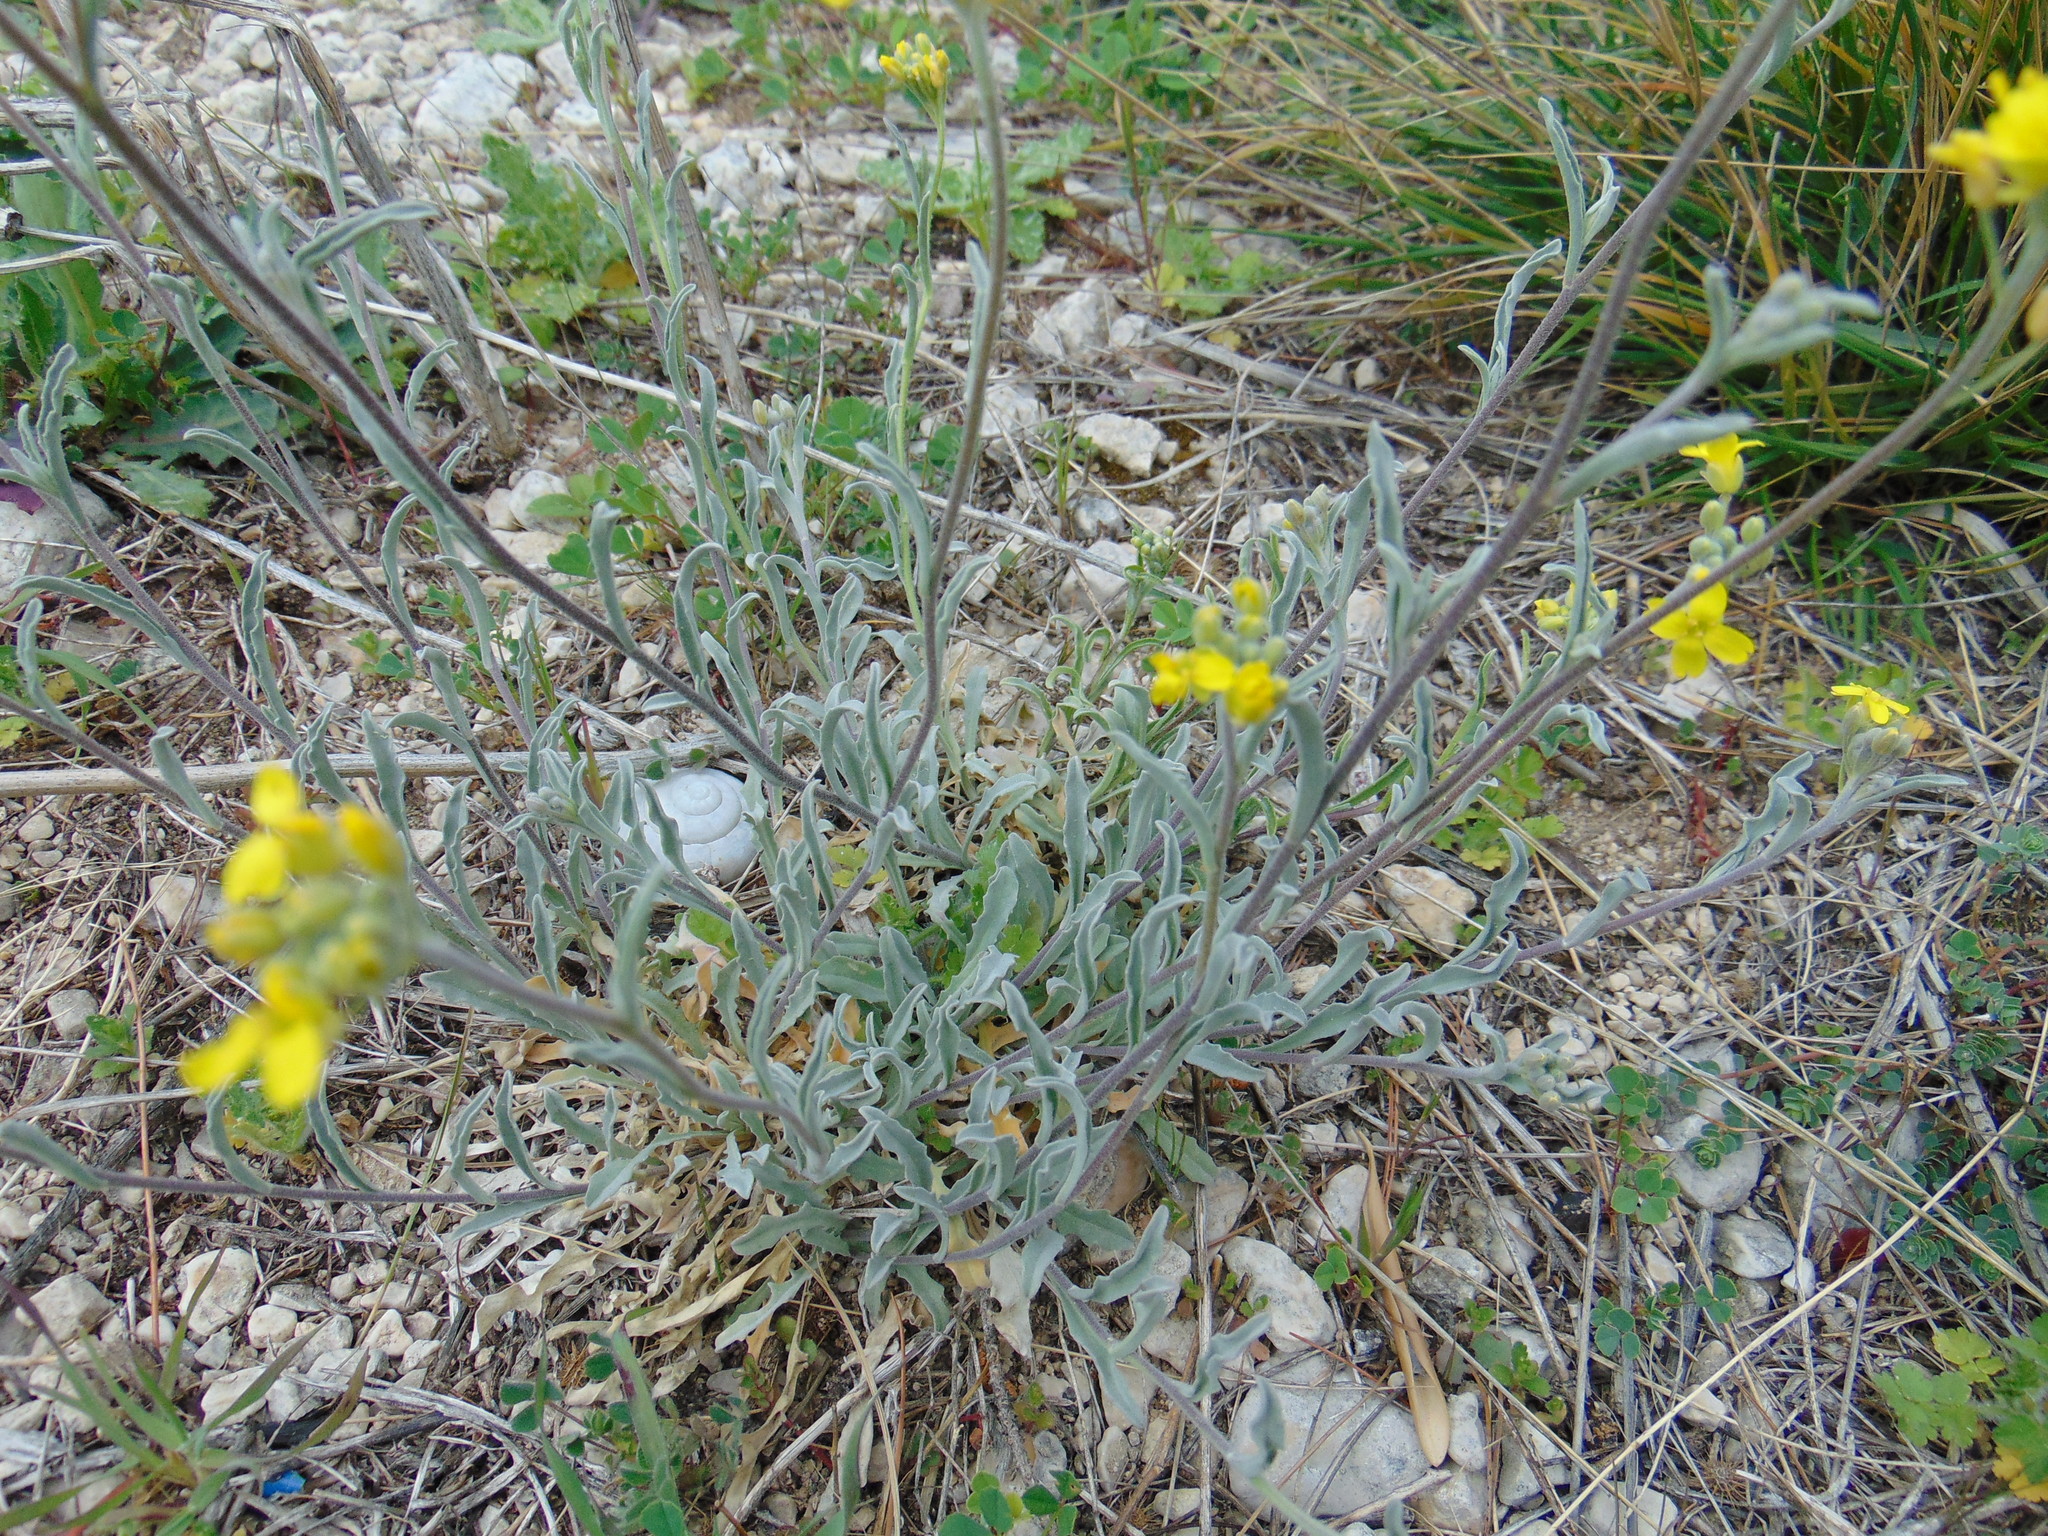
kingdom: Plantae
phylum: Tracheophyta
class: Magnoliopsida
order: Brassicales
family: Brassicaceae
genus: Aurinia
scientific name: Aurinia sinuata
